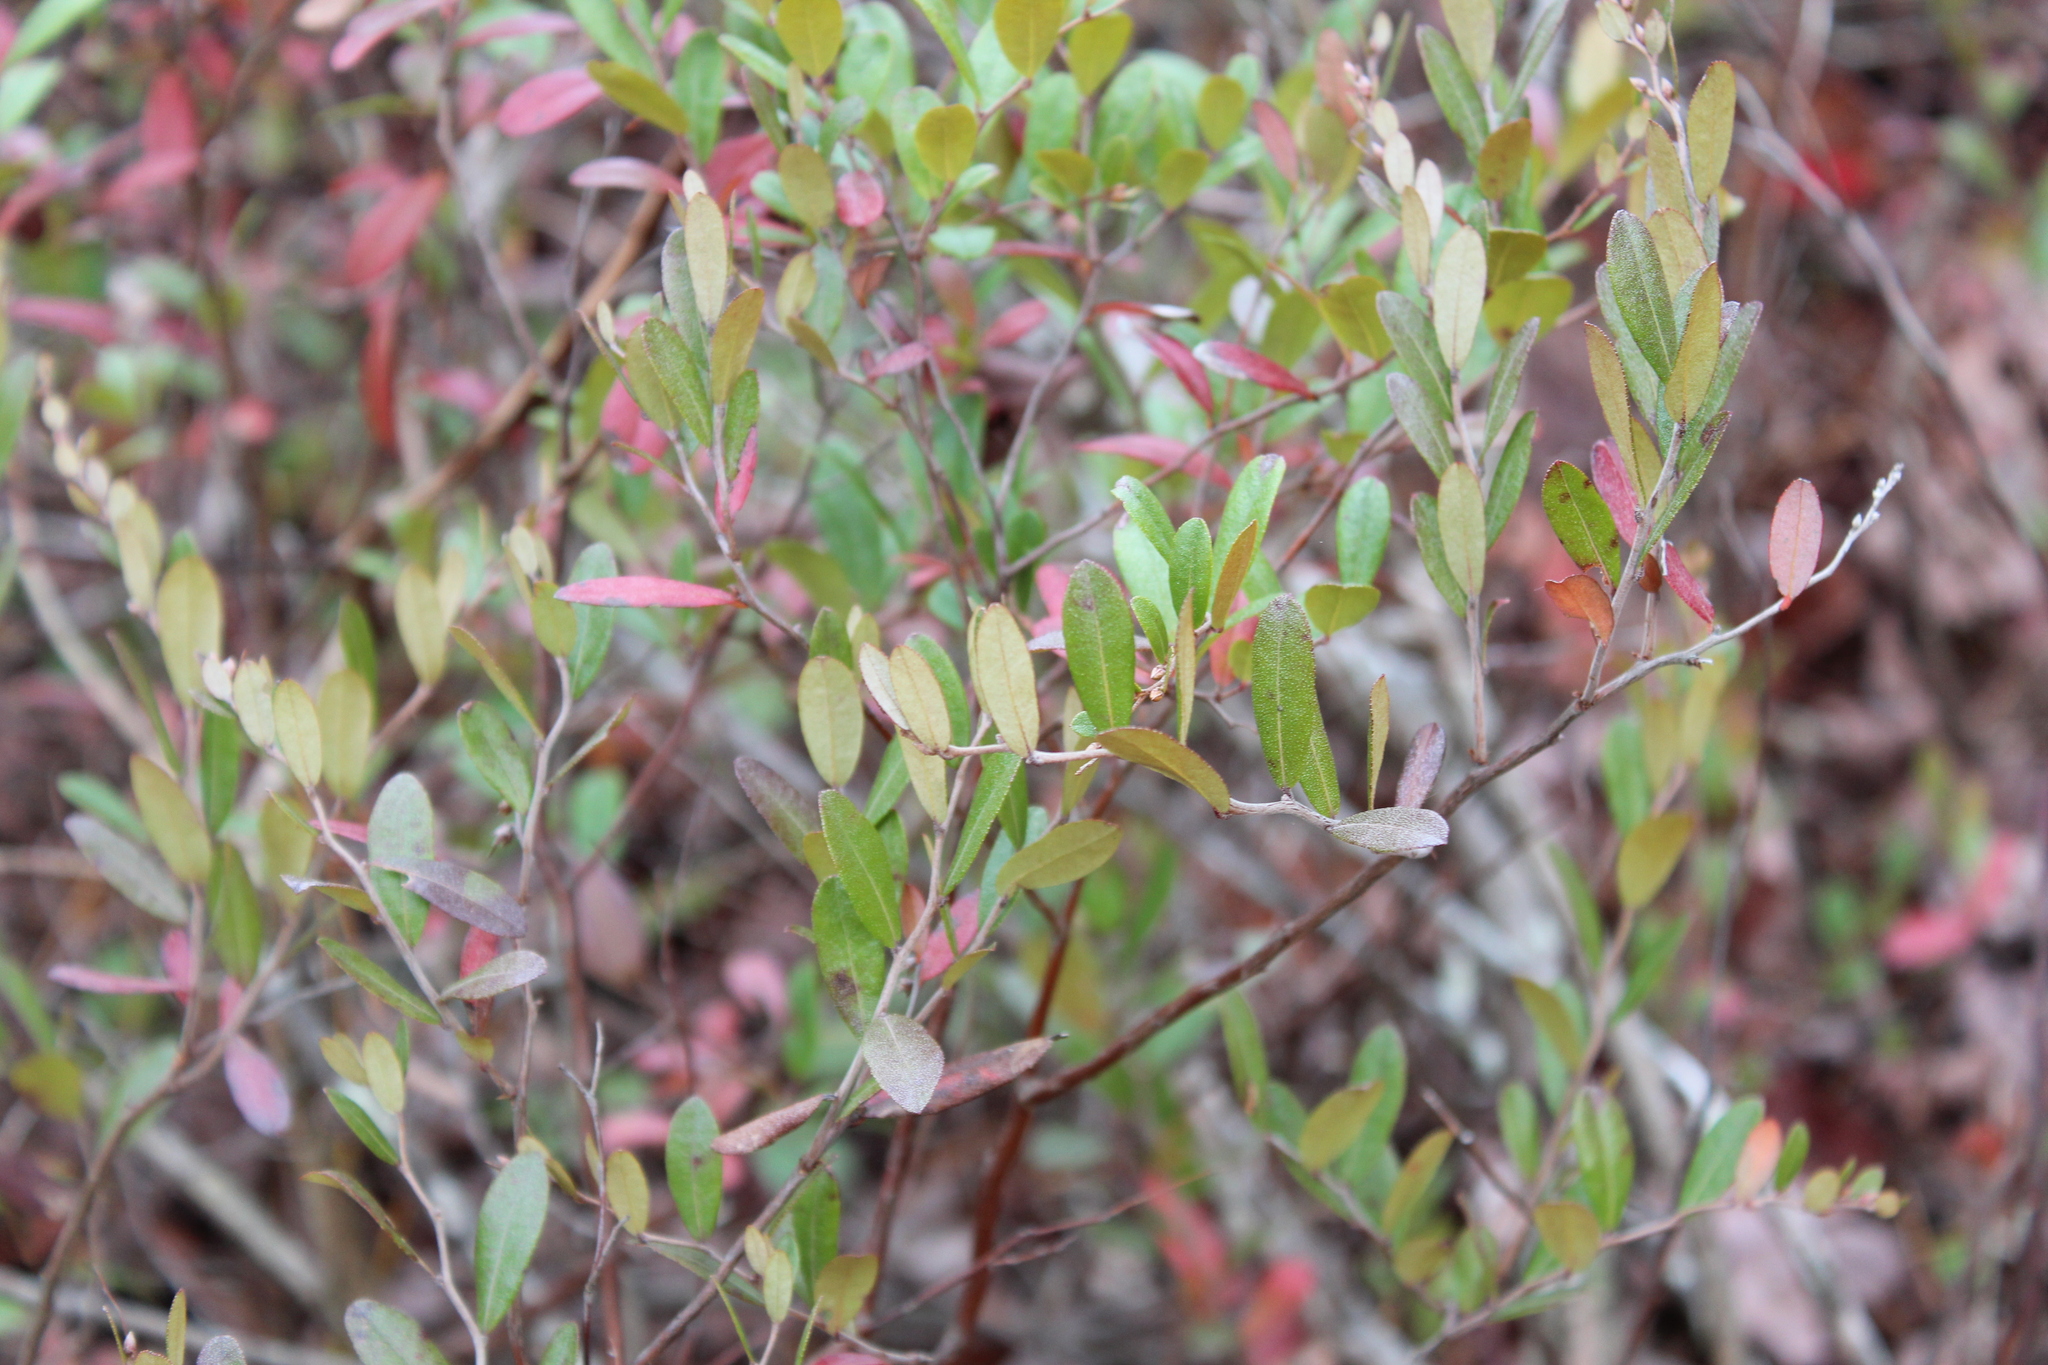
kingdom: Plantae
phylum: Tracheophyta
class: Magnoliopsida
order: Ericales
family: Ericaceae
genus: Chamaedaphne
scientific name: Chamaedaphne calyculata
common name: Leatherleaf
